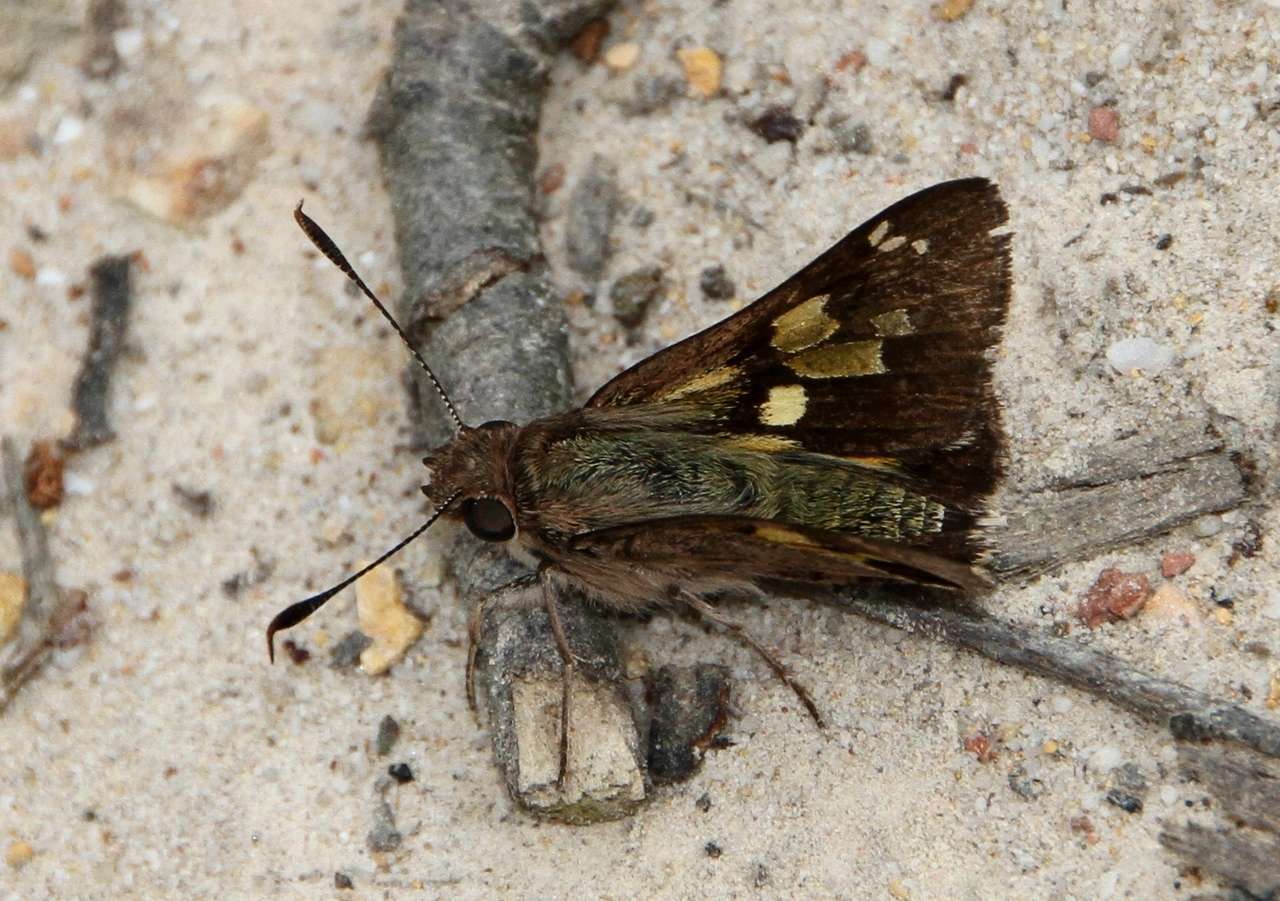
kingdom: Animalia
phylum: Arthropoda
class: Insecta
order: Lepidoptera
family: Hesperiidae
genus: Trapezites
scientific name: Trapezites phigalioides
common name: Montane ochre
